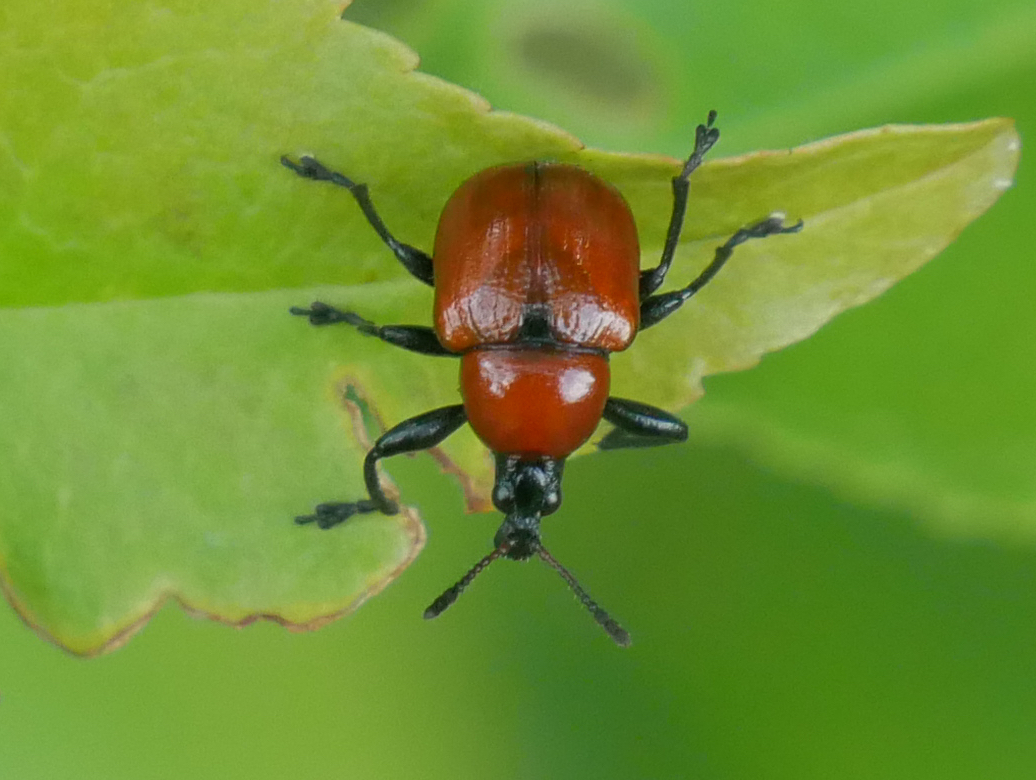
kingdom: Animalia
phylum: Arthropoda
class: Insecta
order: Coleoptera
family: Attelabidae
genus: Attelabus
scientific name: Attelabus nitens
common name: Oak leaf-roller
